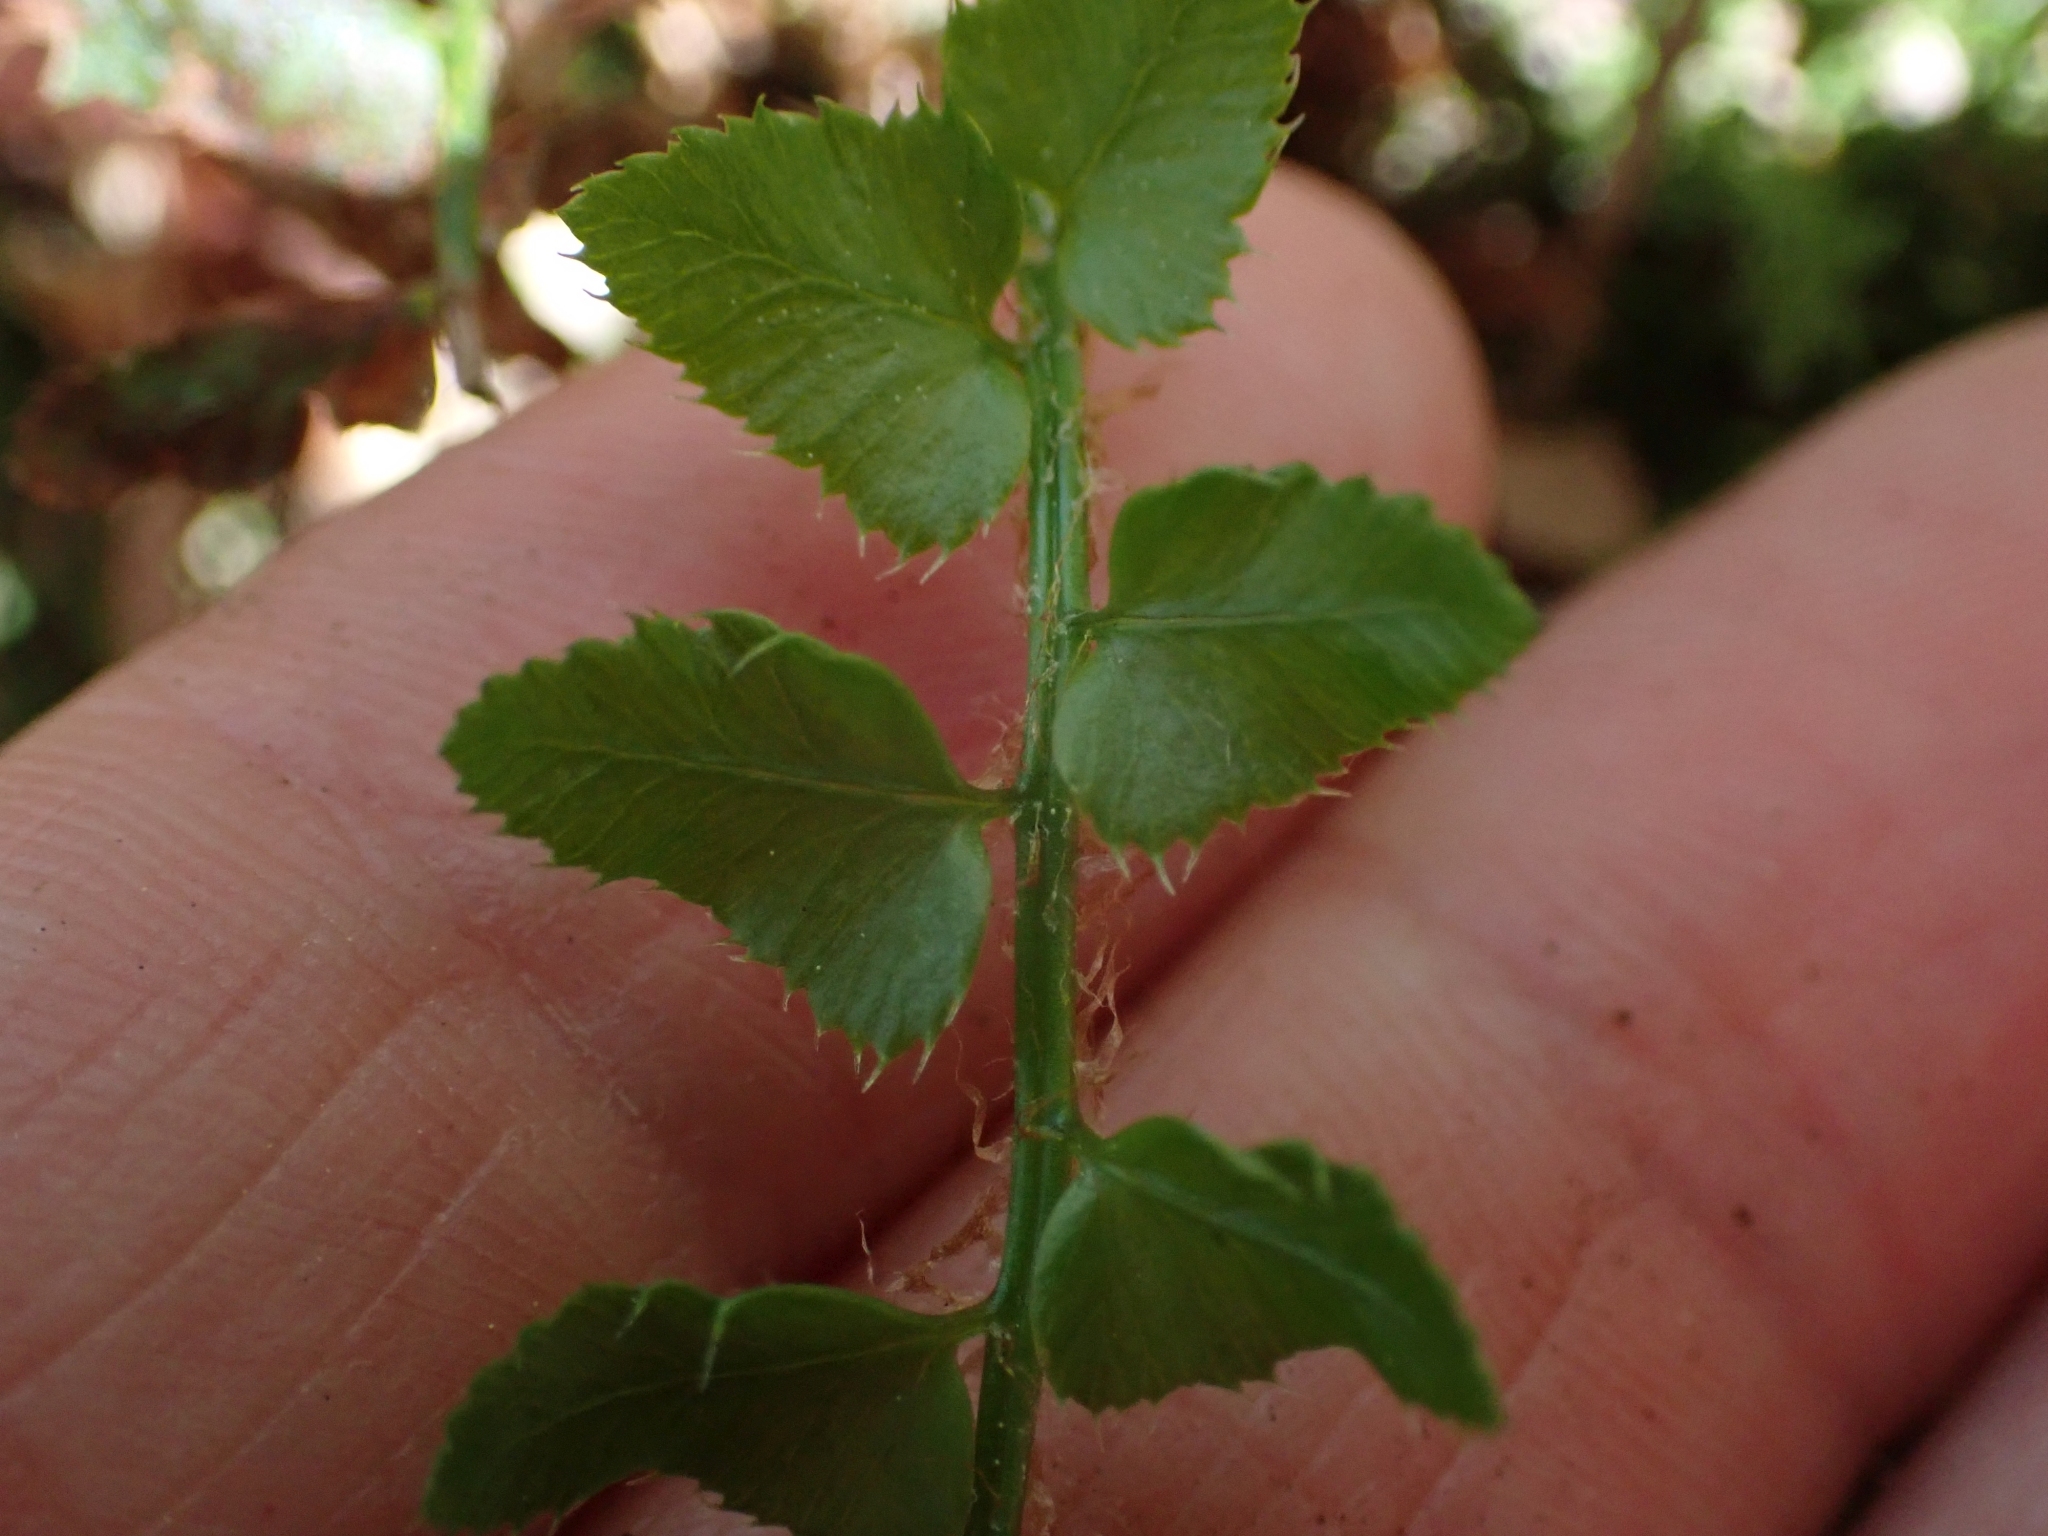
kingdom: Plantae
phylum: Tracheophyta
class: Polypodiopsida
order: Polypodiales
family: Dryopteridaceae
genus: Polystichum
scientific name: Polystichum munitum
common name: Western sword-fern
